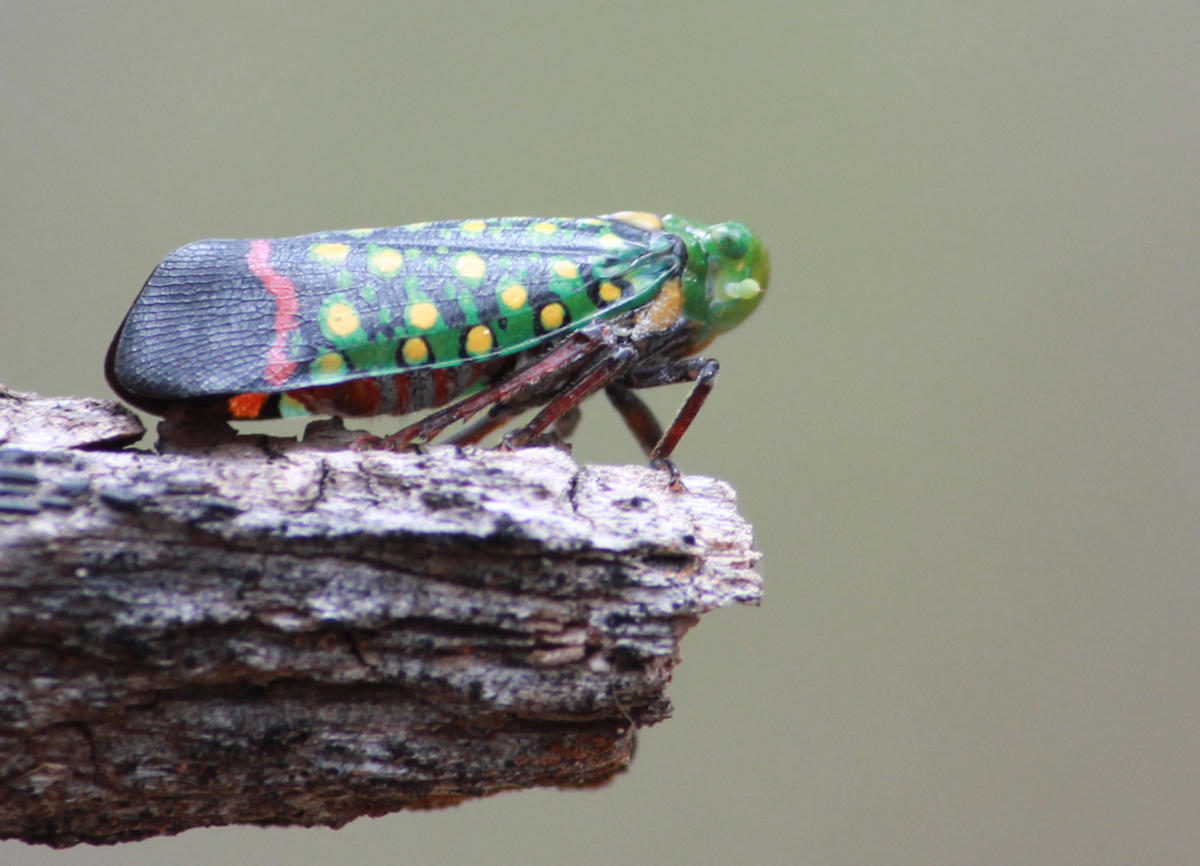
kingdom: Animalia
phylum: Arthropoda
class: Insecta
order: Hemiptera
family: Fulgoridae
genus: Eddara
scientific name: Eddara euchroma
